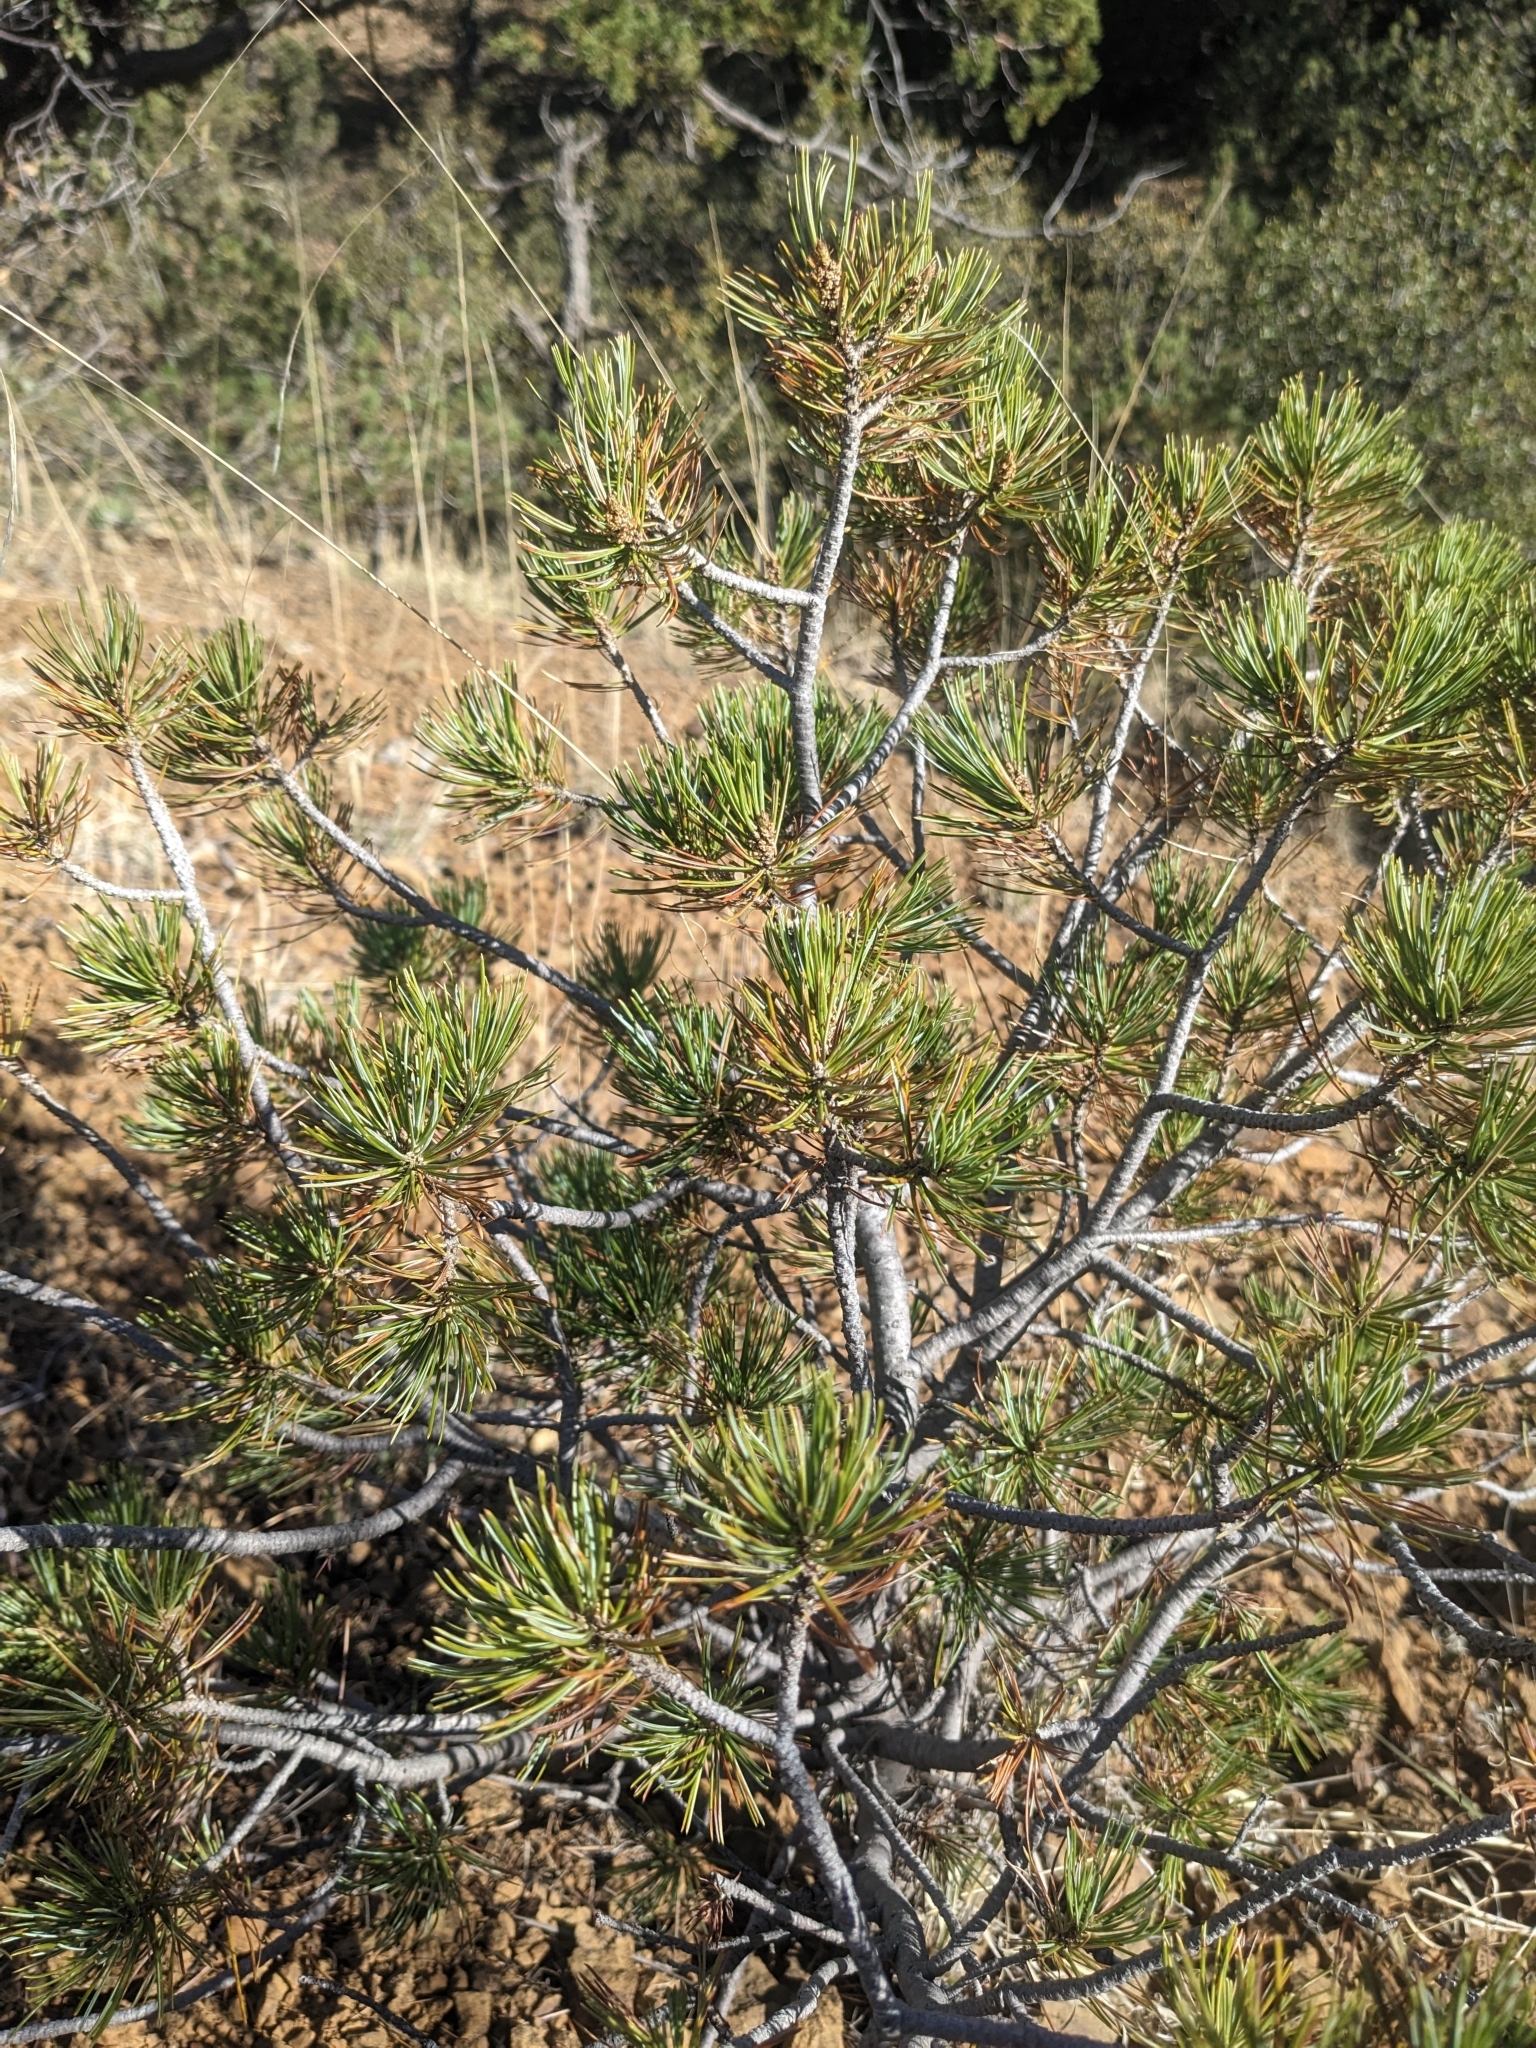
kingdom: Plantae
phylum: Tracheophyta
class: Pinopsida
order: Pinales
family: Pinaceae
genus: Pinus
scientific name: Pinus cembroides
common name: Mexican nut pine
